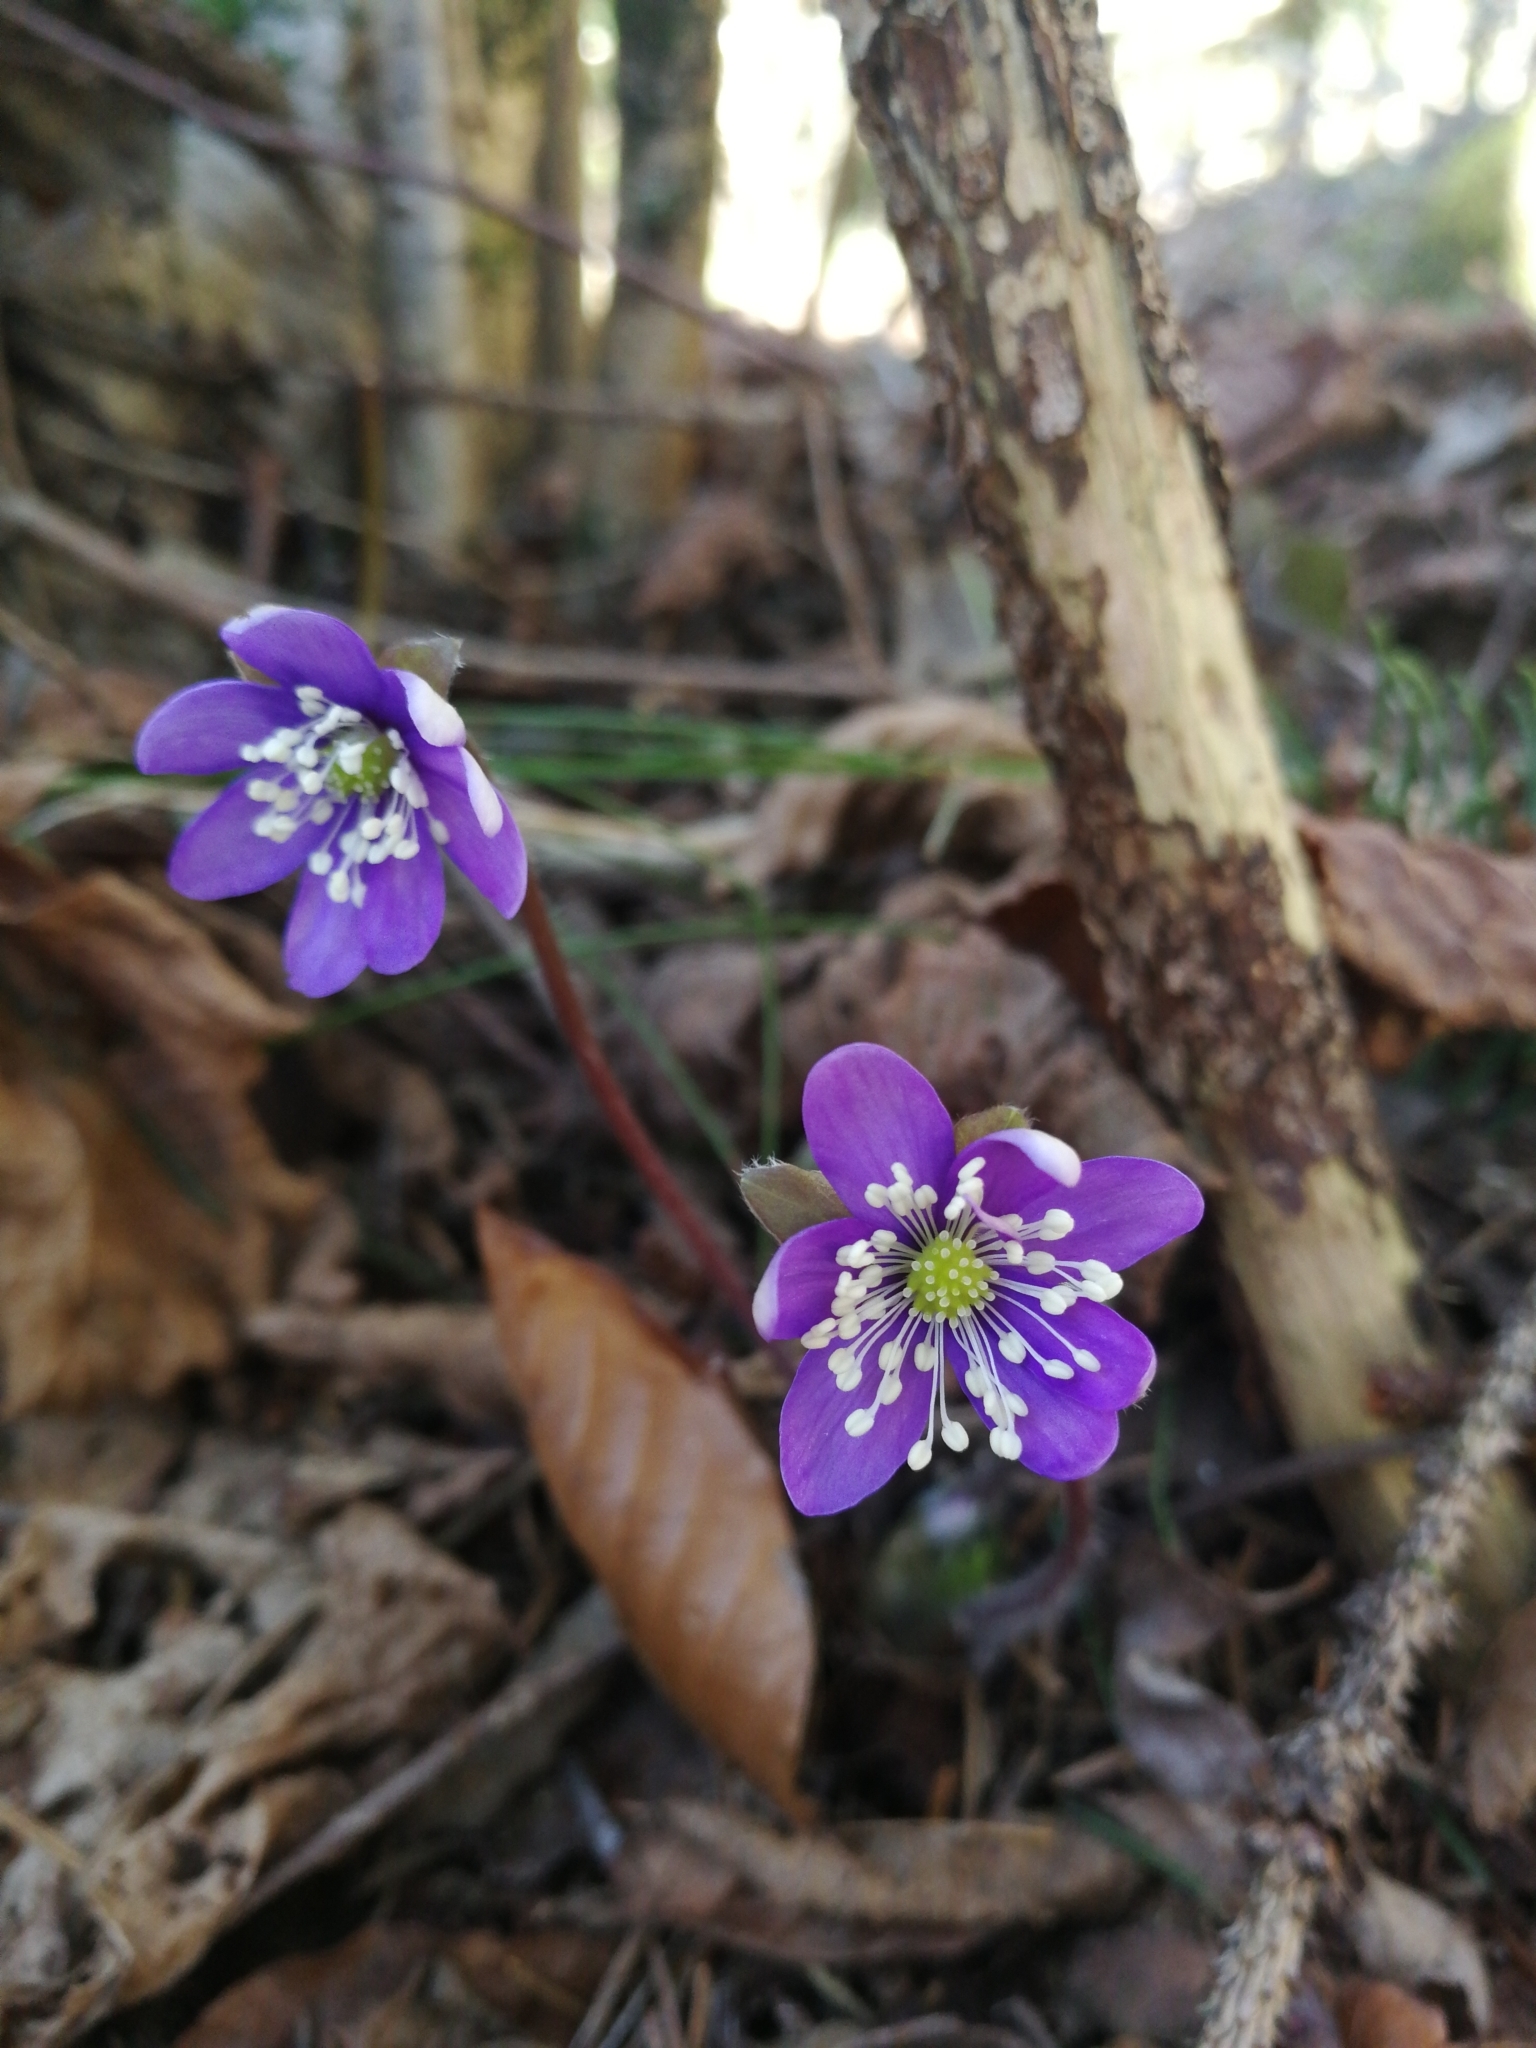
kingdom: Plantae
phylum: Tracheophyta
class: Magnoliopsida
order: Ranunculales
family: Ranunculaceae
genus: Hepatica
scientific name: Hepatica nobilis
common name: Liverleaf
